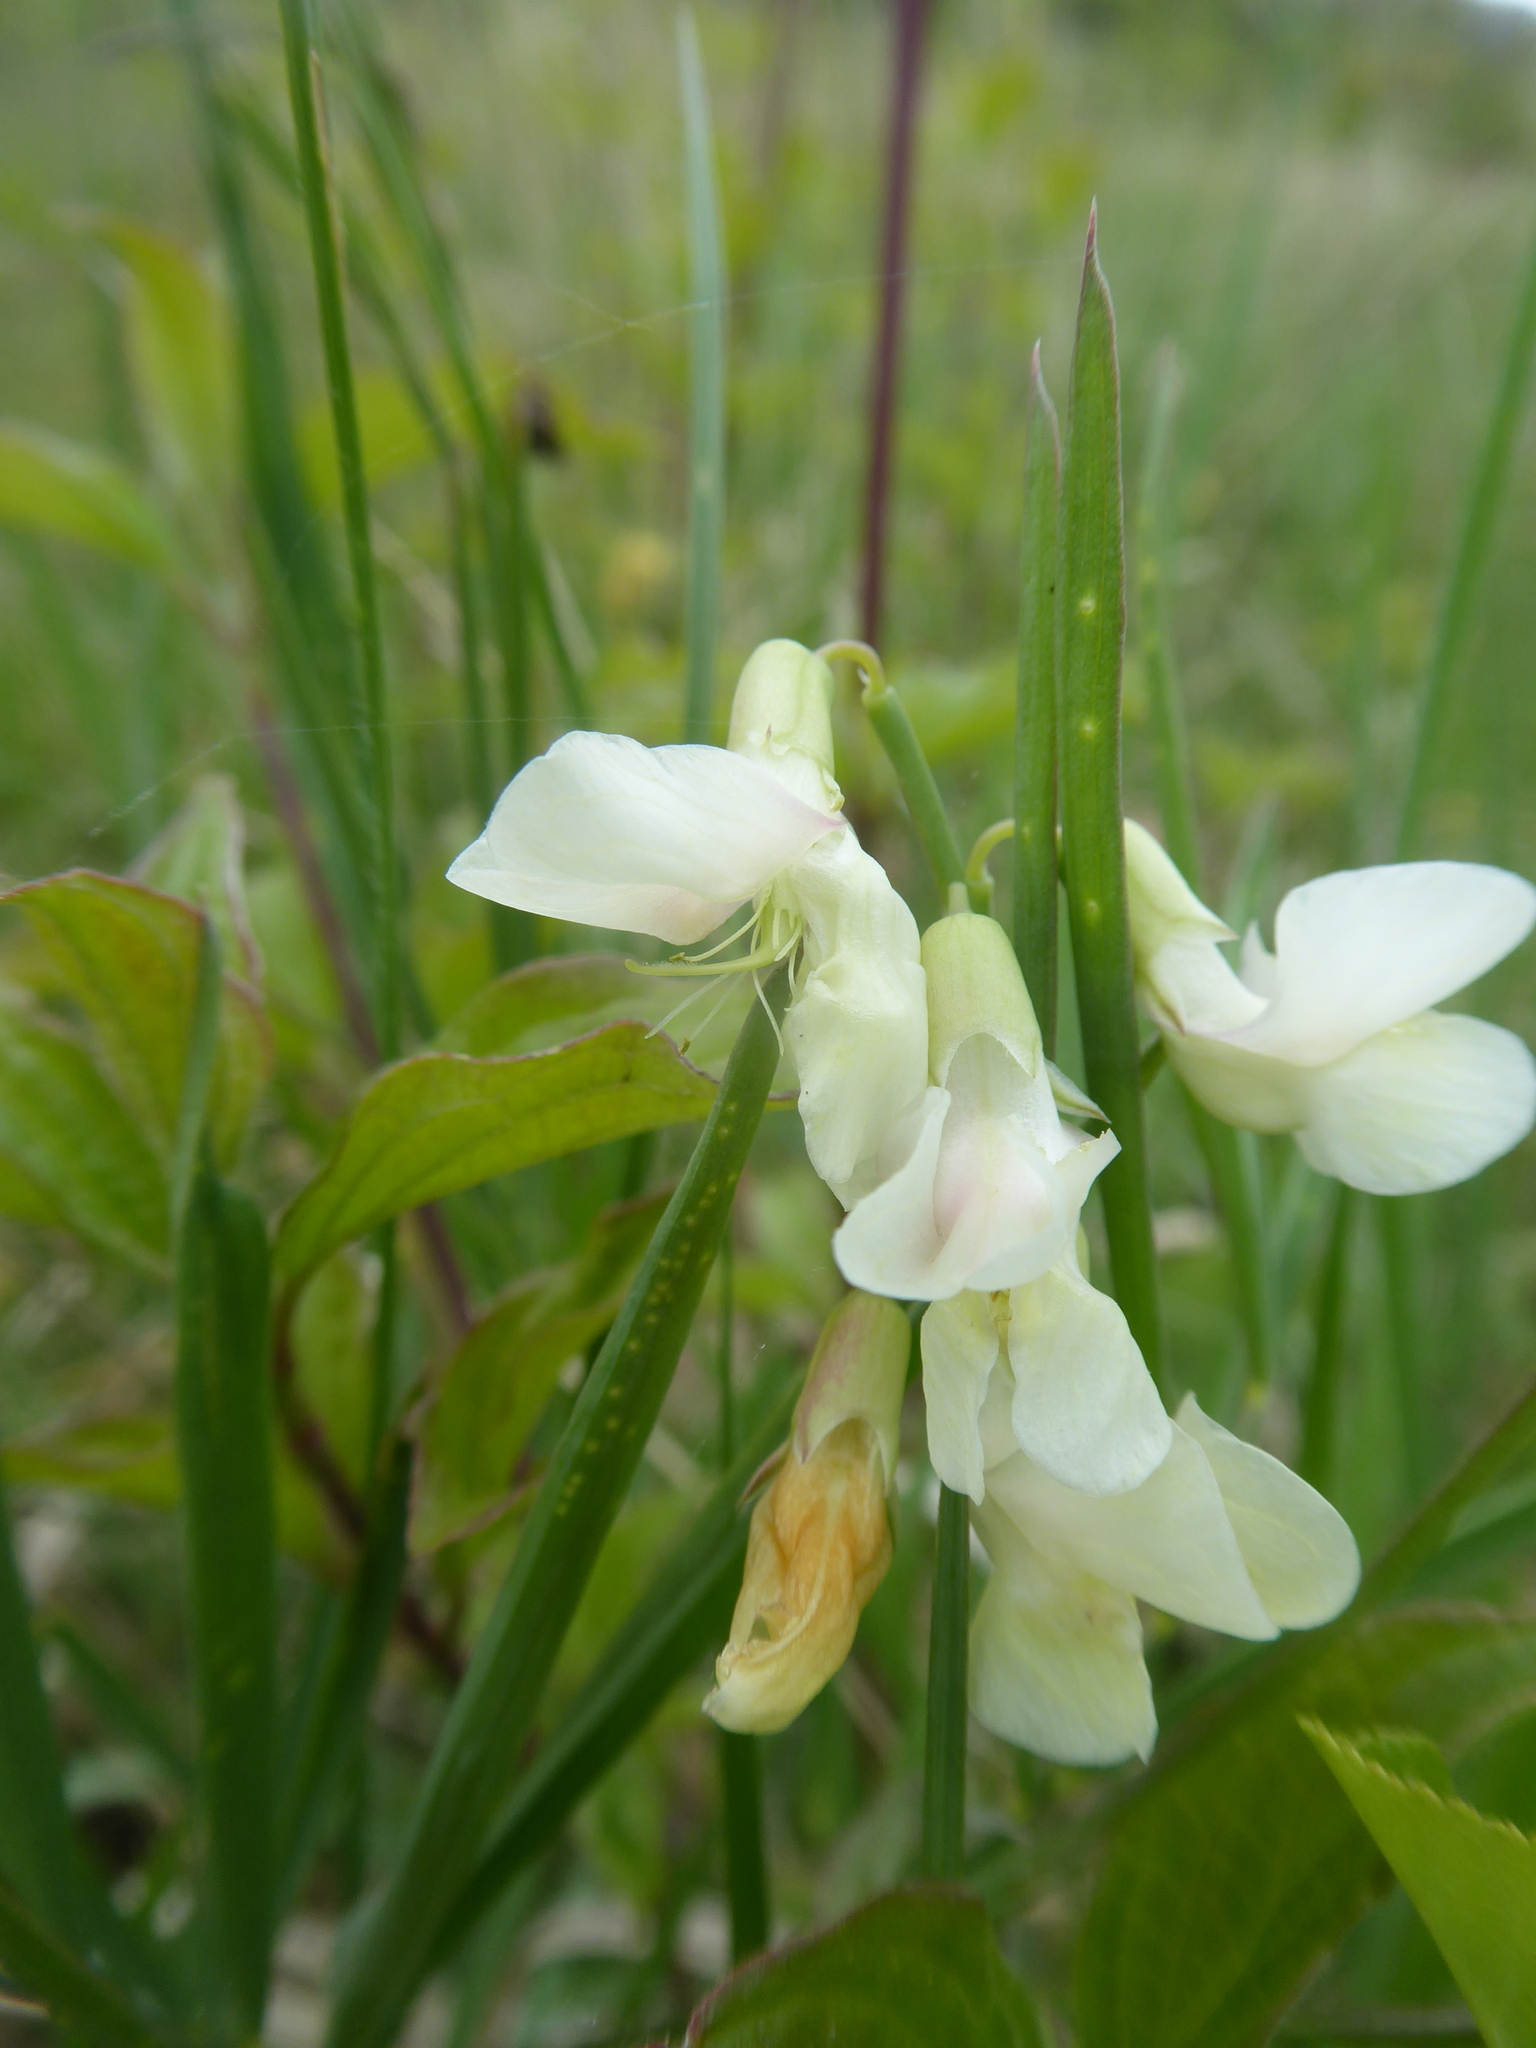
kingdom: Plantae
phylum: Tracheophyta
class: Magnoliopsida
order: Fabales
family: Fabaceae
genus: Lathyrus
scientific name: Lathyrus pannonicus
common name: Pea
